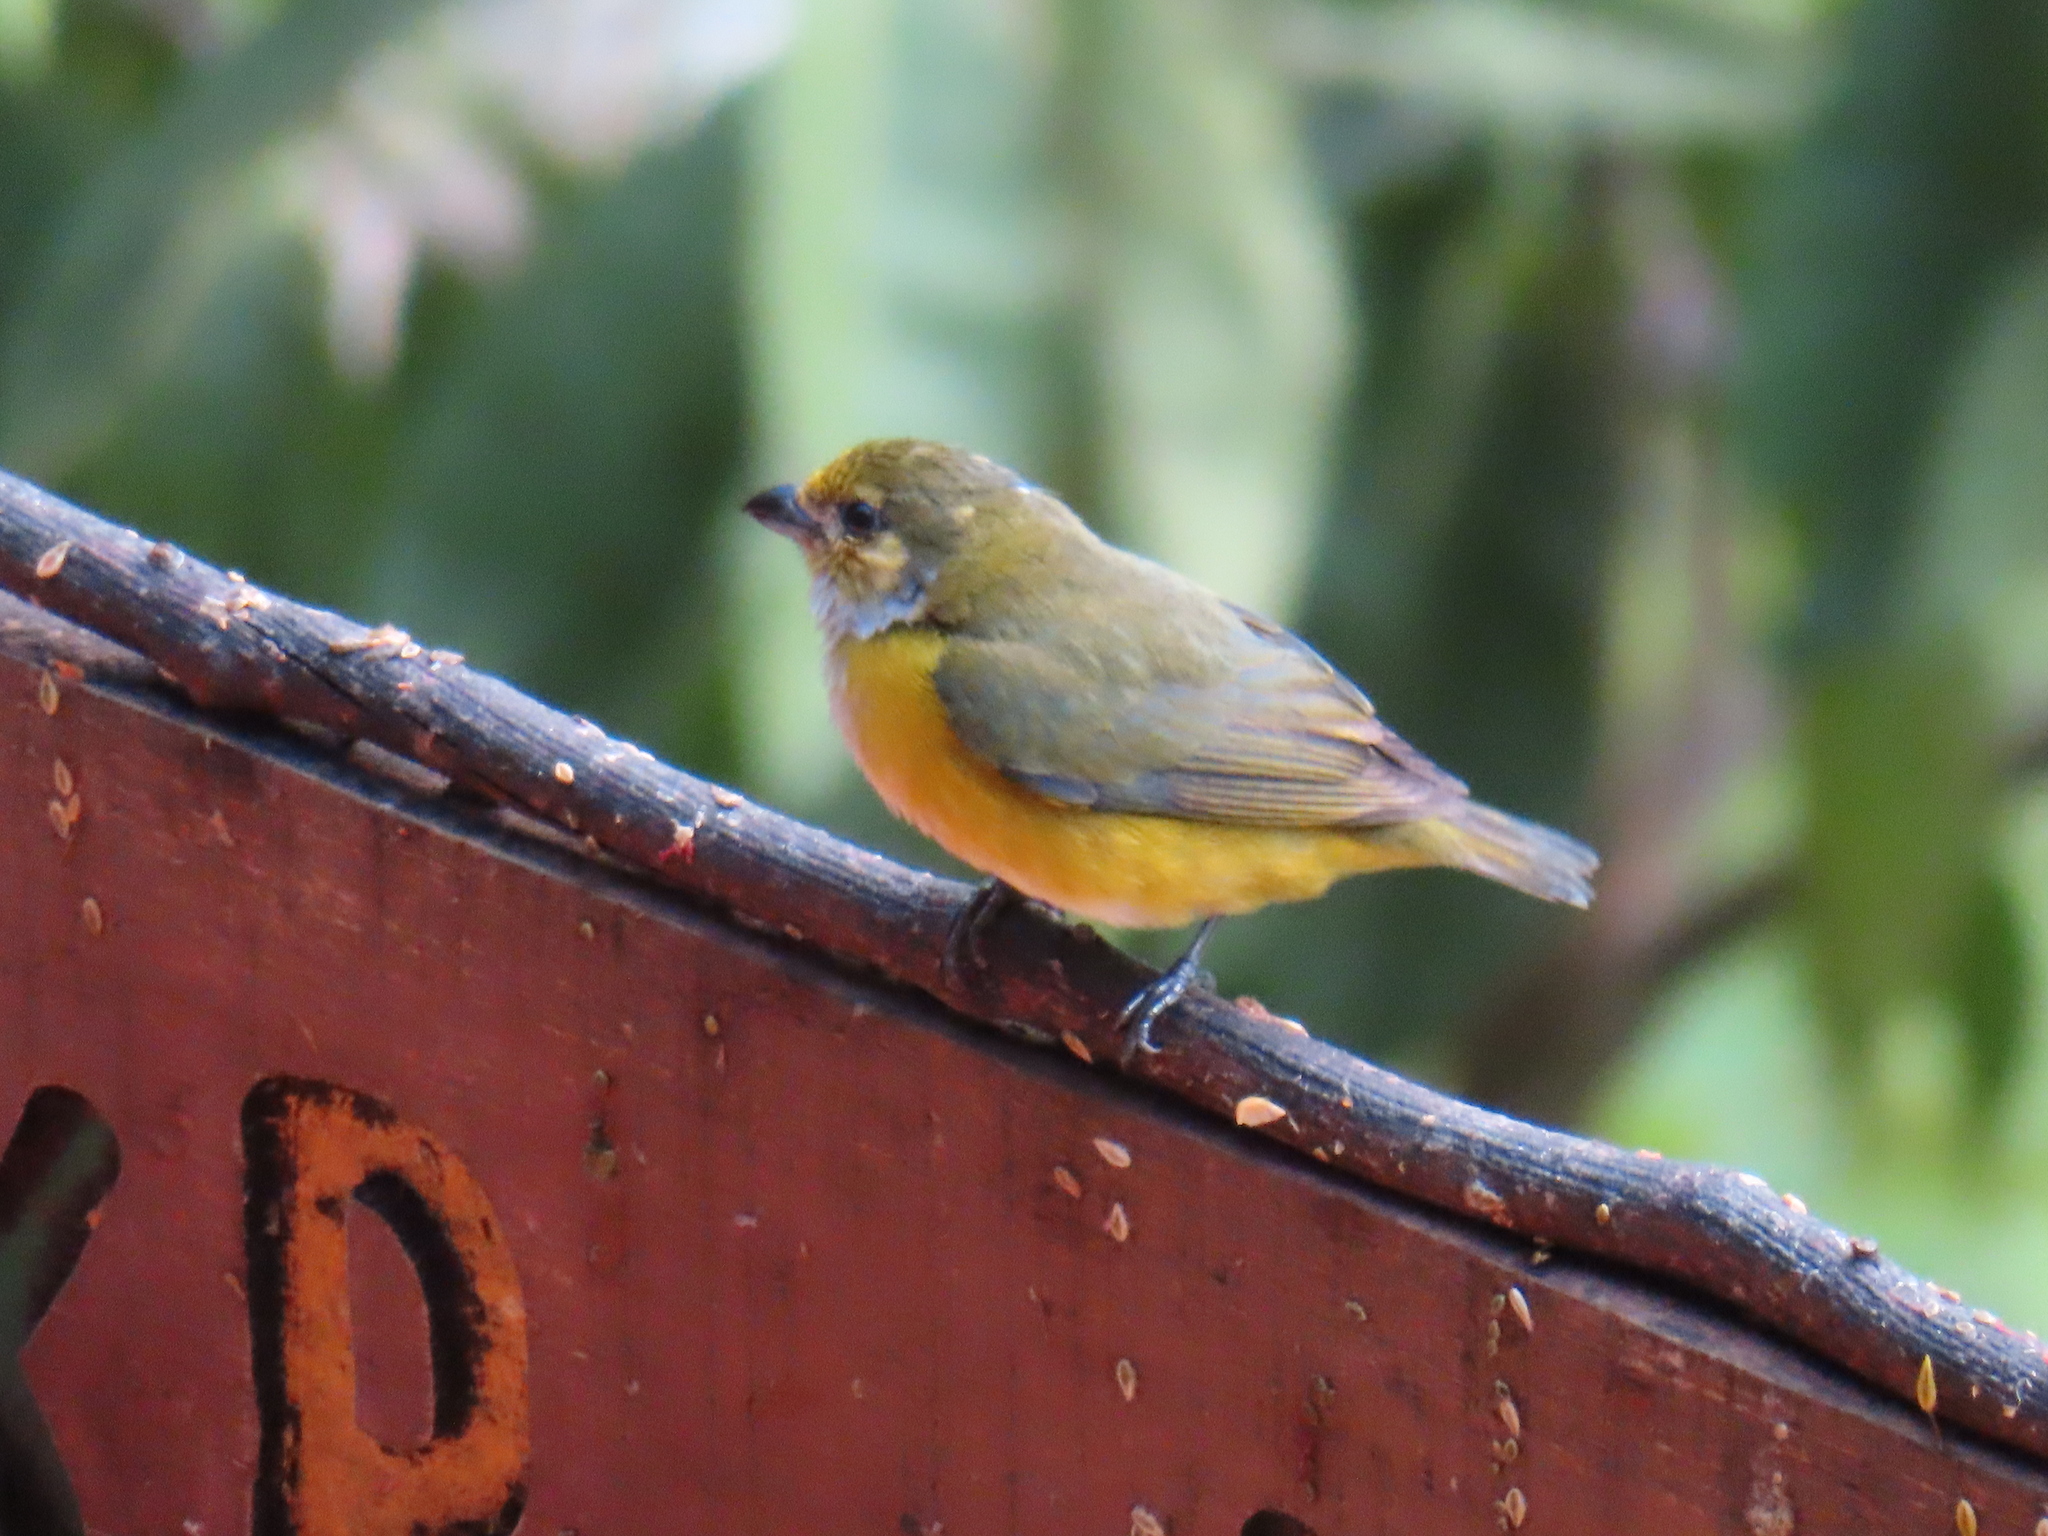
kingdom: Animalia
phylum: Chordata
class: Aves
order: Passeriformes
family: Fringillidae
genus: Euphonia
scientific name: Euphonia hirundinacea
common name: Yellow-throated euphonia
